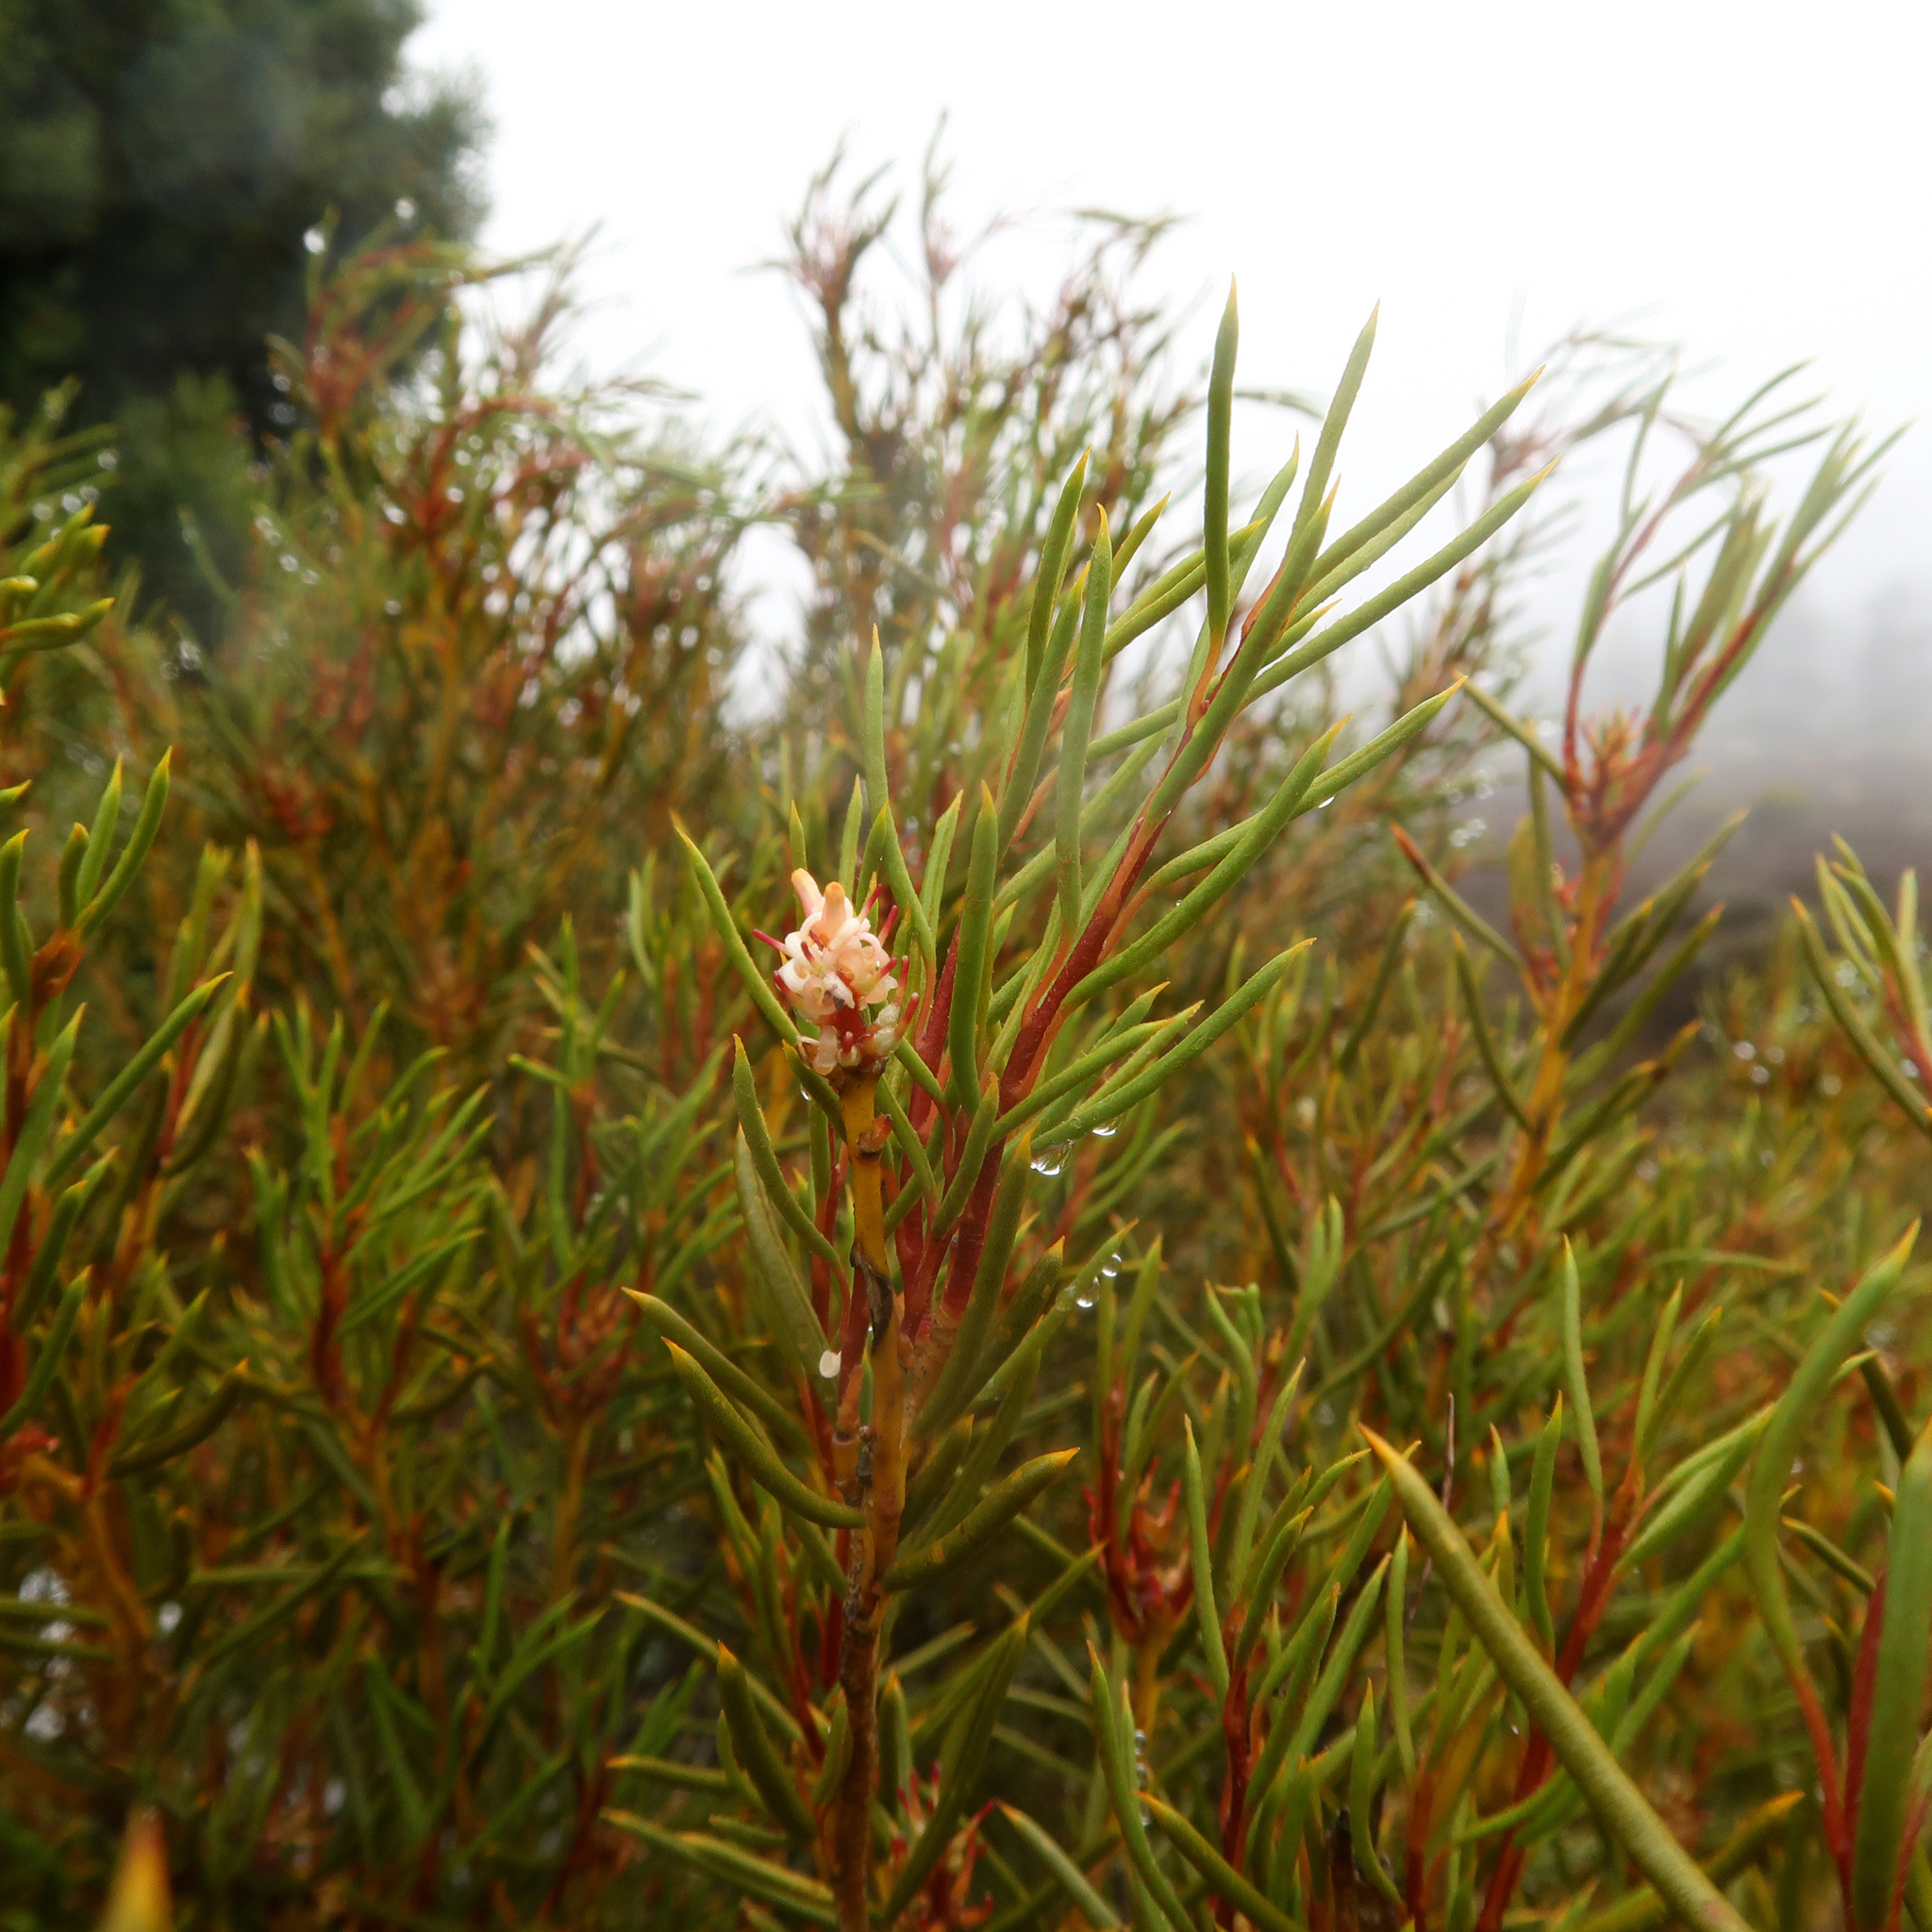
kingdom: Plantae
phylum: Tracheophyta
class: Magnoliopsida
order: Proteales
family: Proteaceae
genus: Orites
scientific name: Orites acicularis
